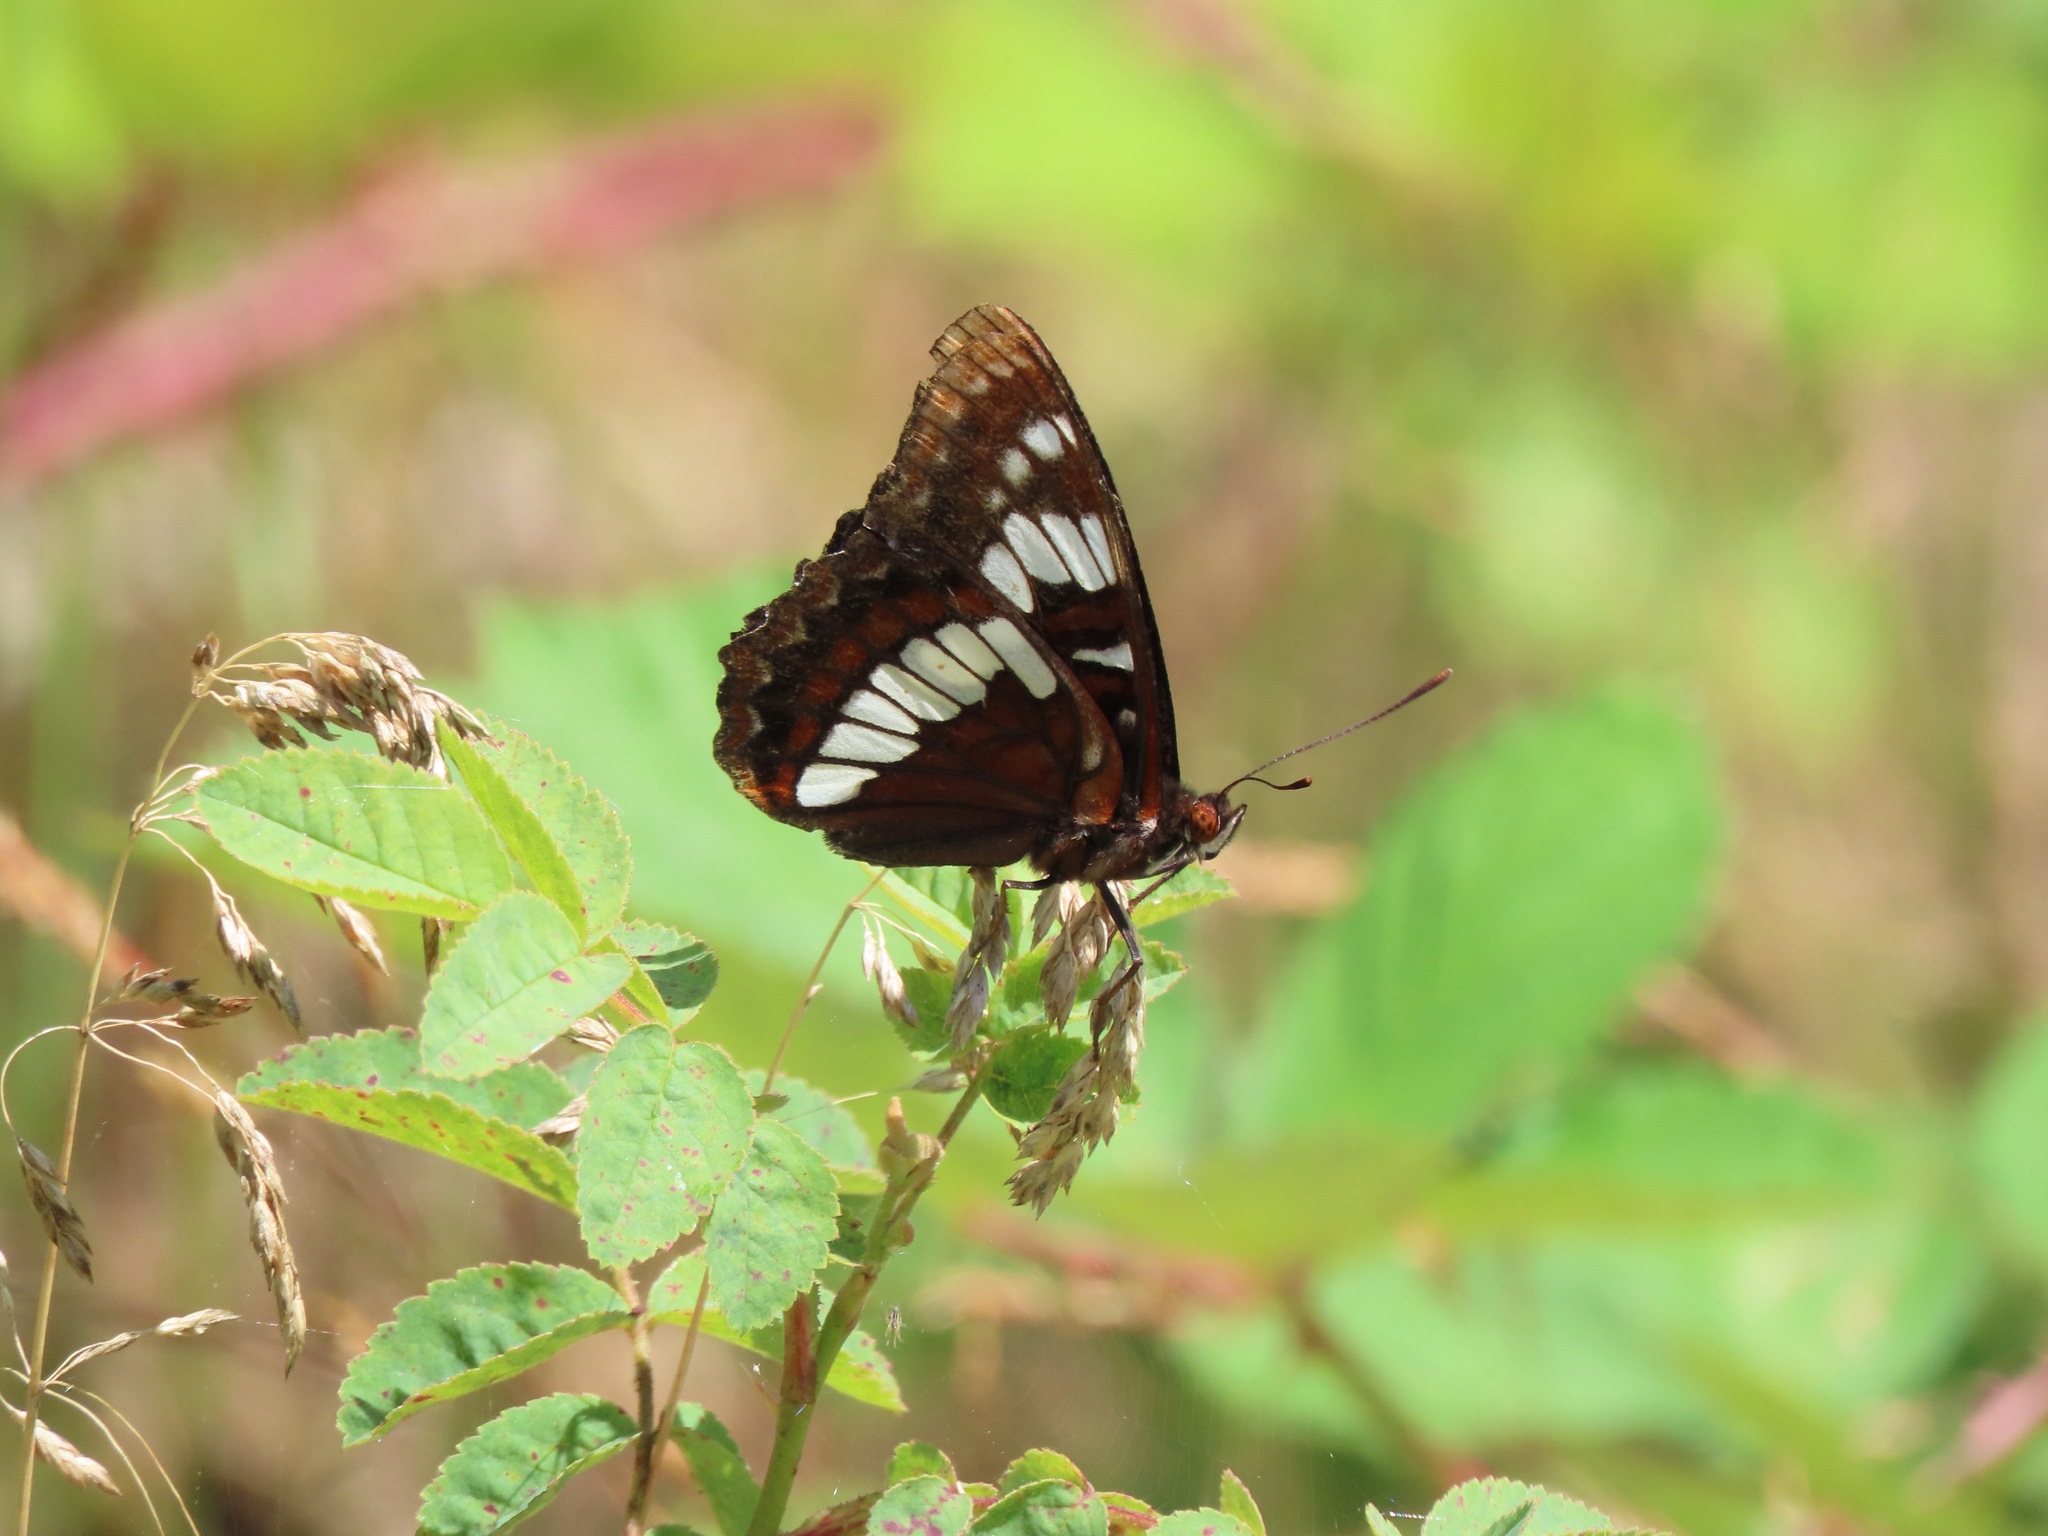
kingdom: Animalia
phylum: Arthropoda
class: Insecta
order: Lepidoptera
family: Nymphalidae
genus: Limenitis
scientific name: Limenitis lorquini
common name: Lorquin's admiral
